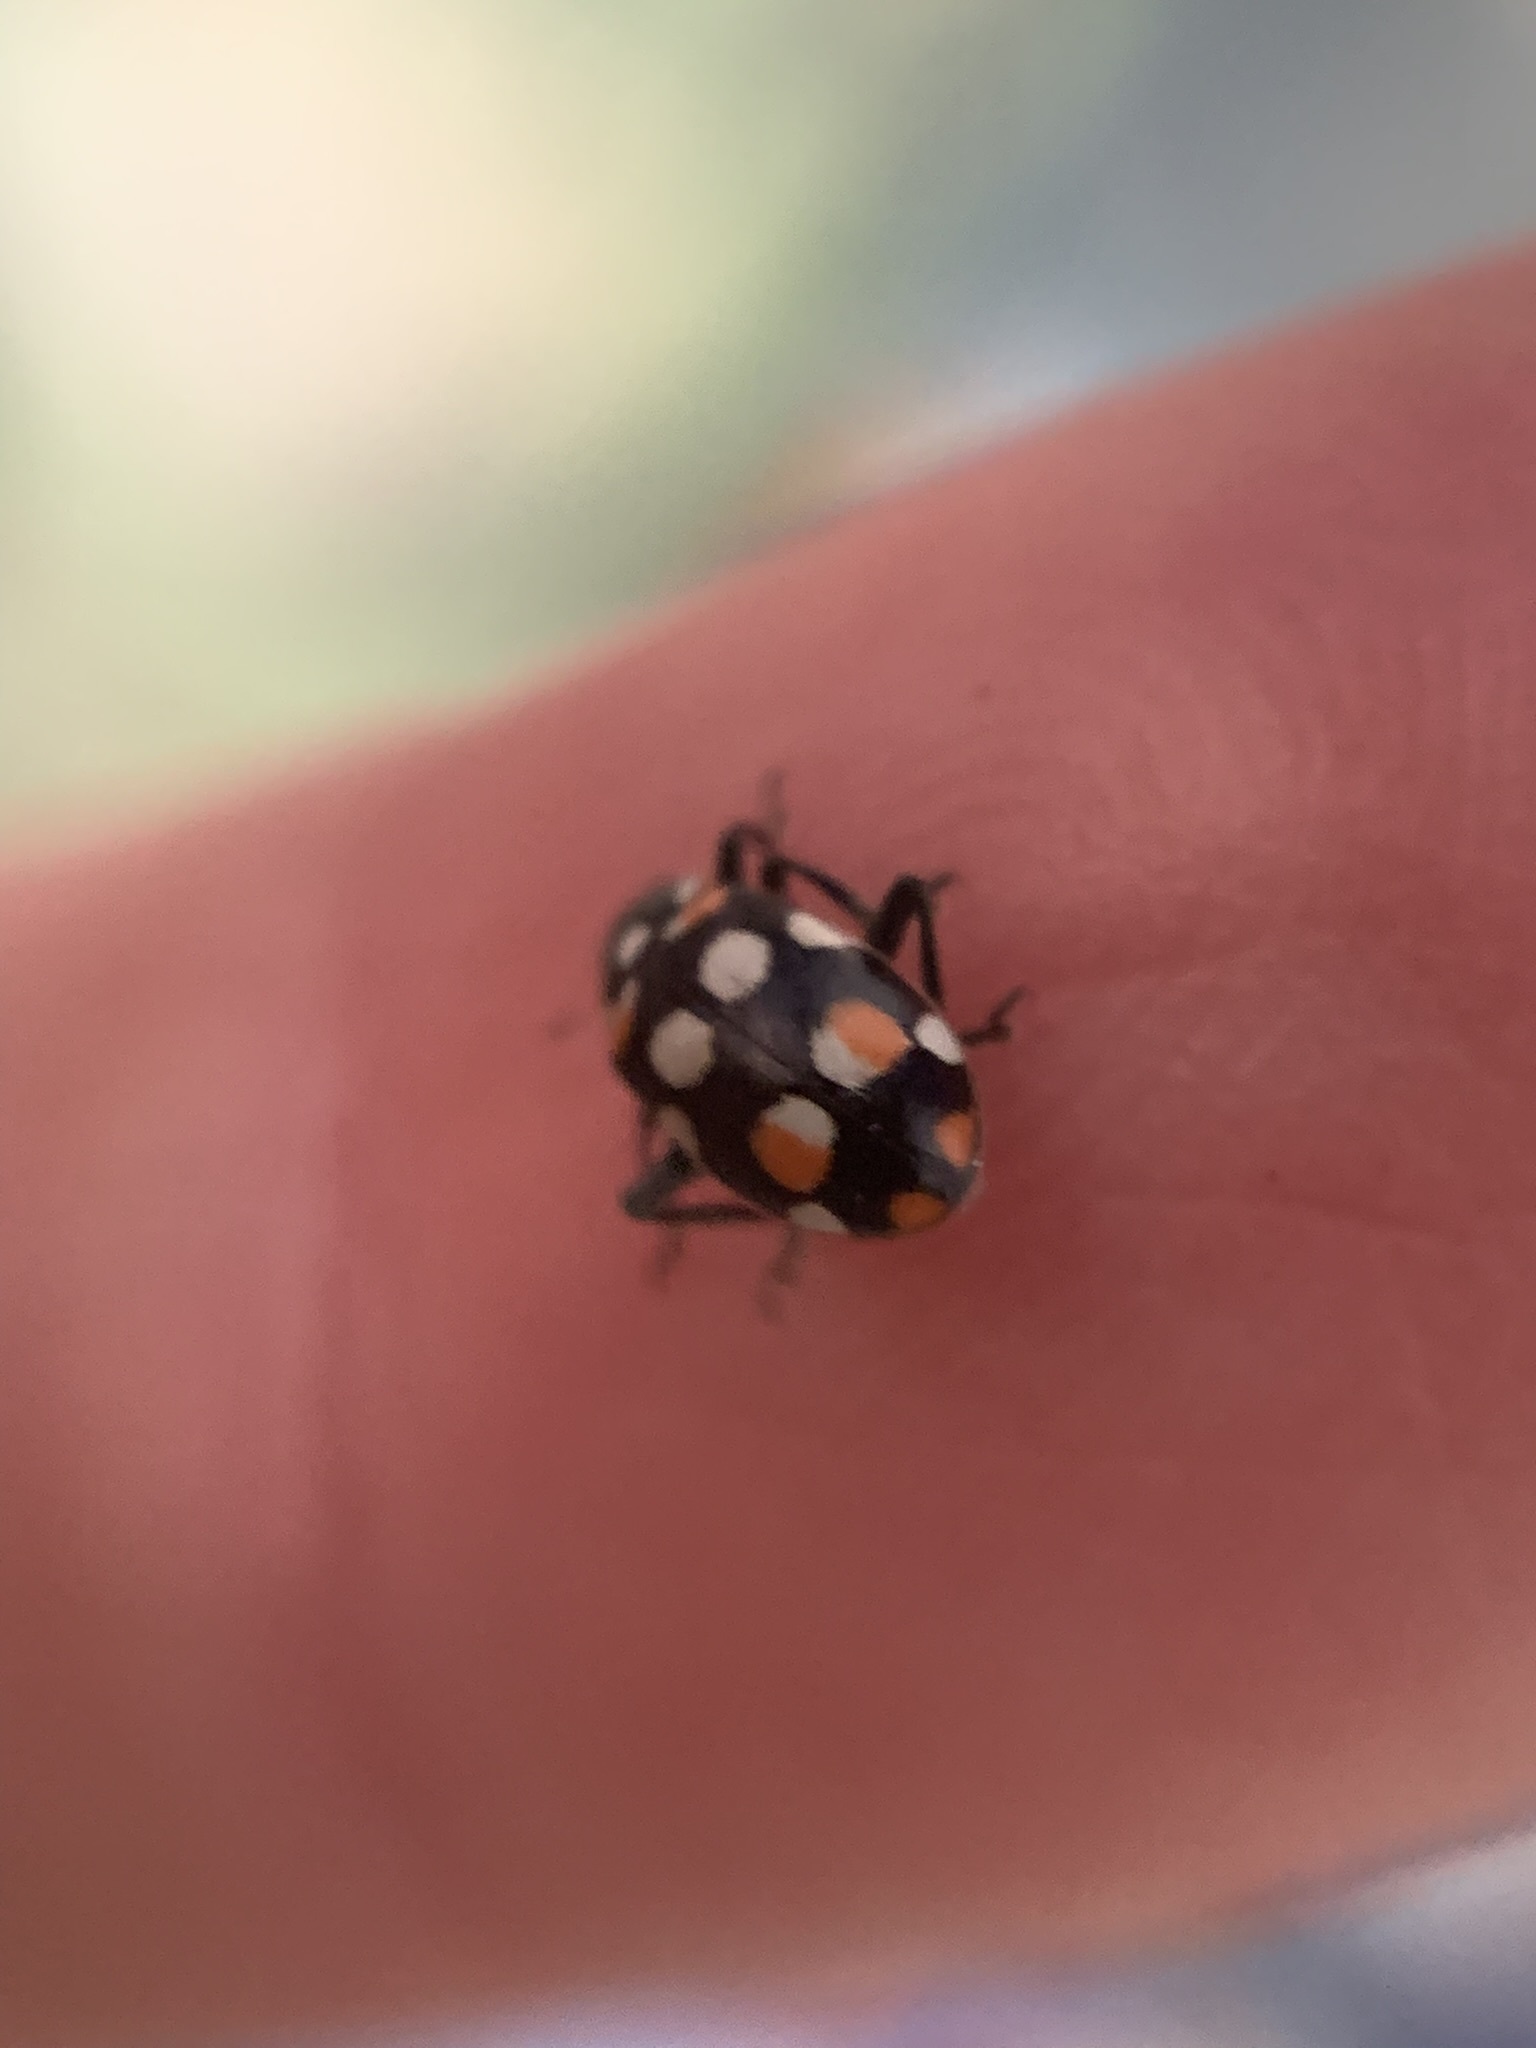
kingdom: Animalia
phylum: Arthropoda
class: Insecta
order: Coleoptera
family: Coccinellidae
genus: Eriopis
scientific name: Eriopis connexa
